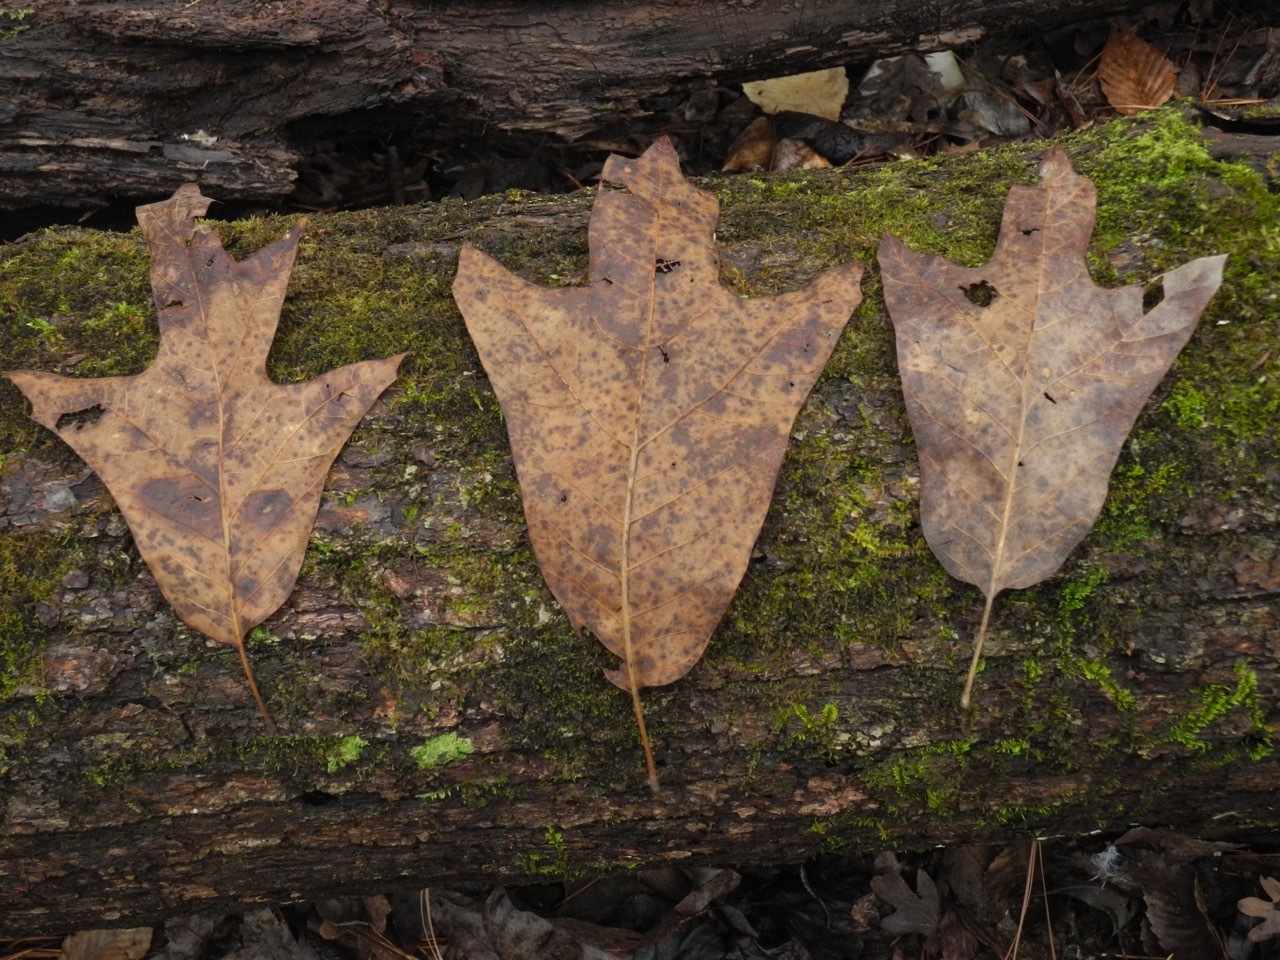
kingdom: Plantae
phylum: Tracheophyta
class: Magnoliopsida
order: Fagales
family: Fagaceae
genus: Quercus
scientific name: Quercus falcata
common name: Southern red oak
